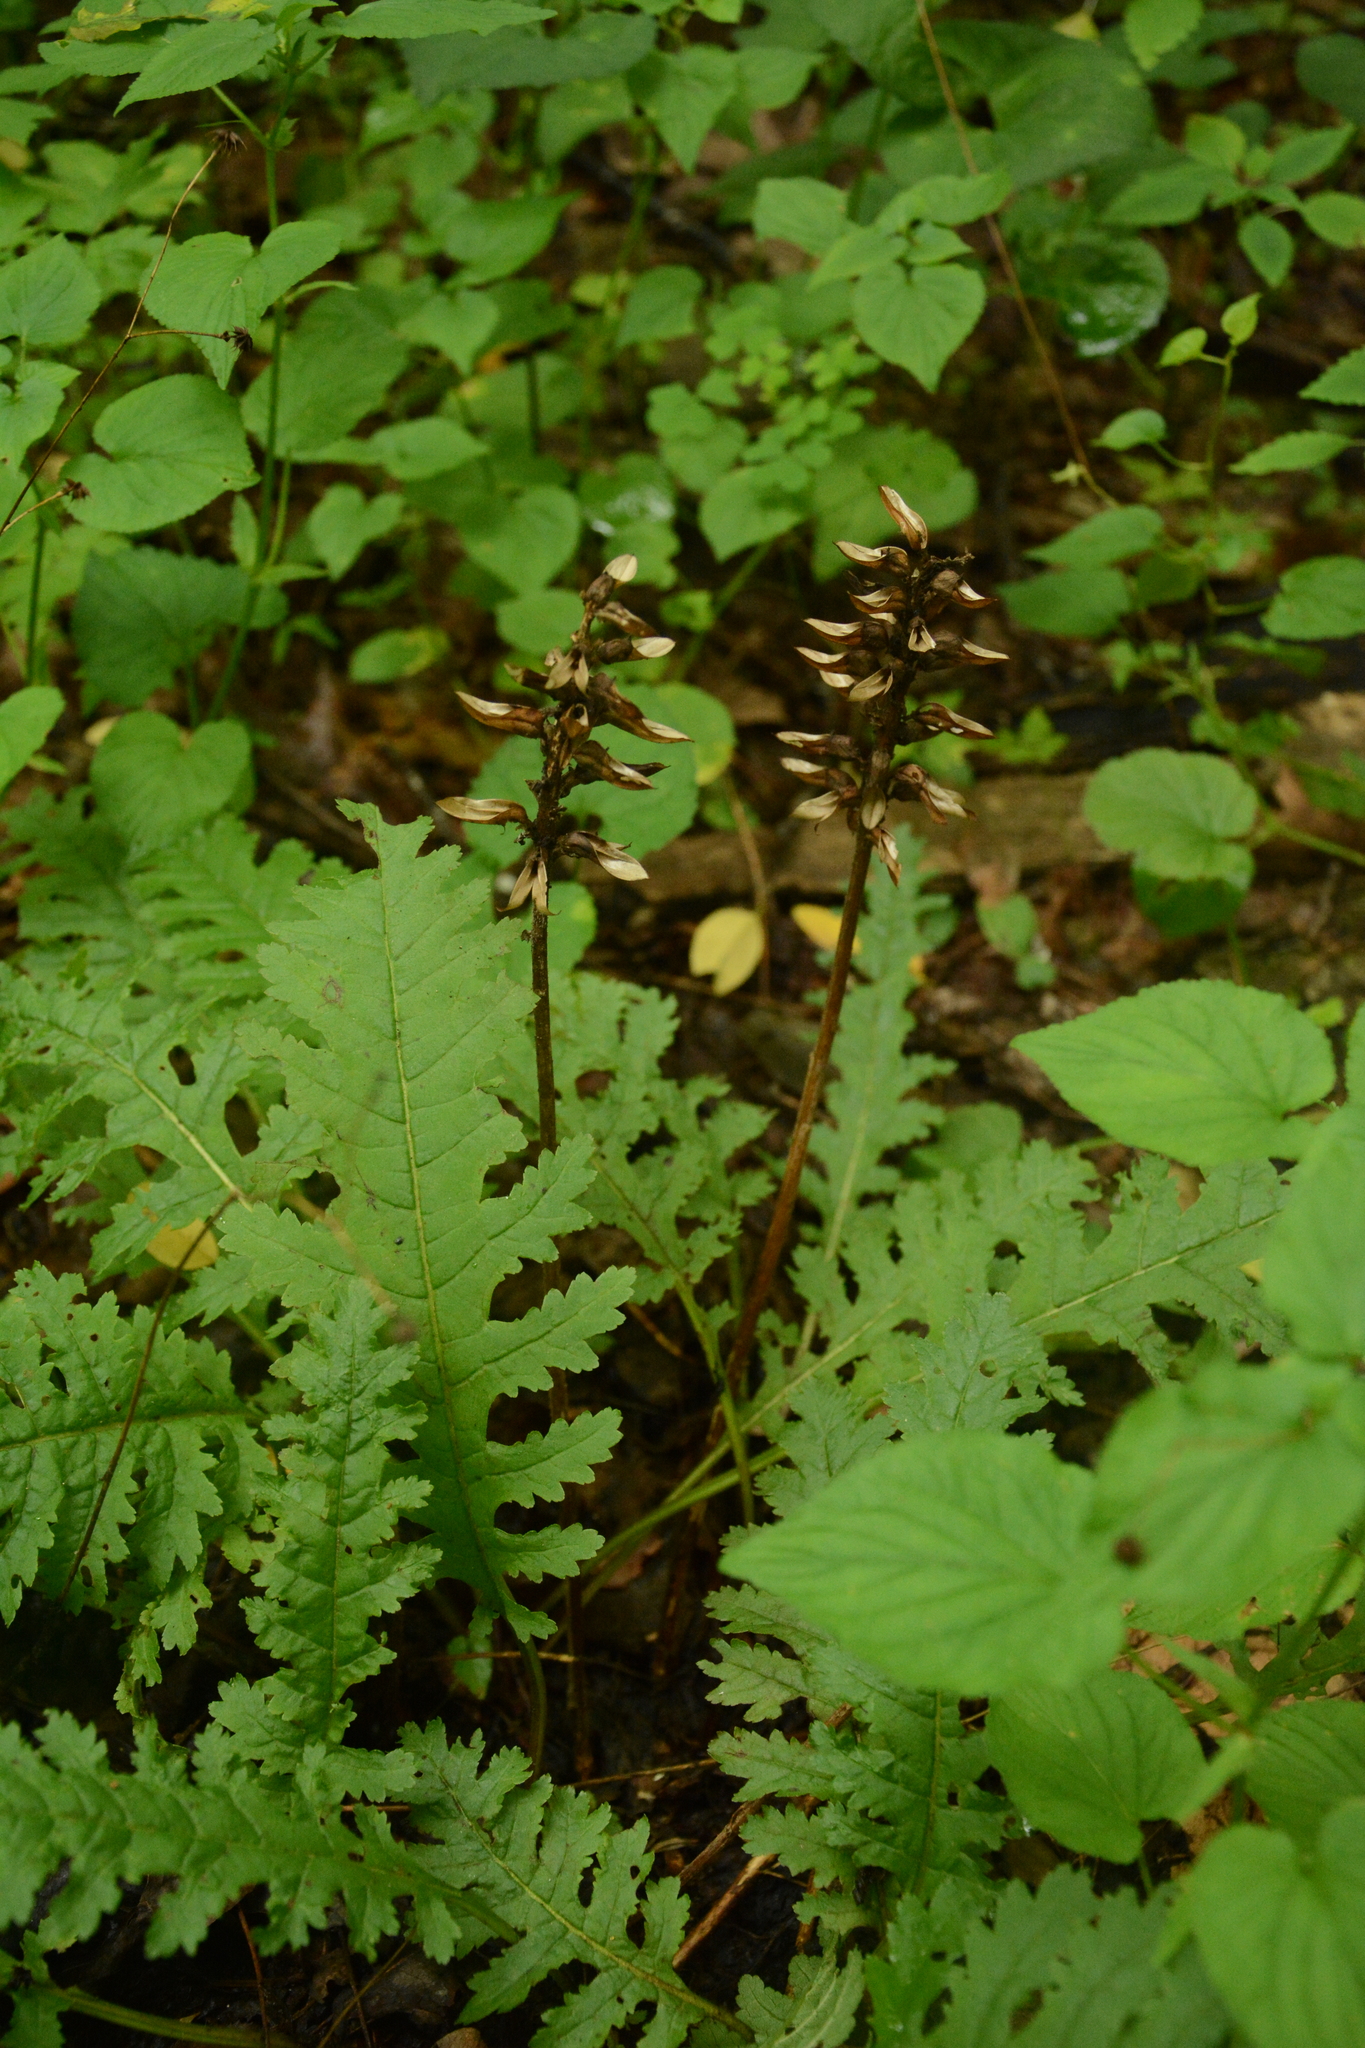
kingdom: Plantae
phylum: Tracheophyta
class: Magnoliopsida
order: Lamiales
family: Orobanchaceae
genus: Pedicularis
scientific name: Pedicularis canadensis
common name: Early lousewort
